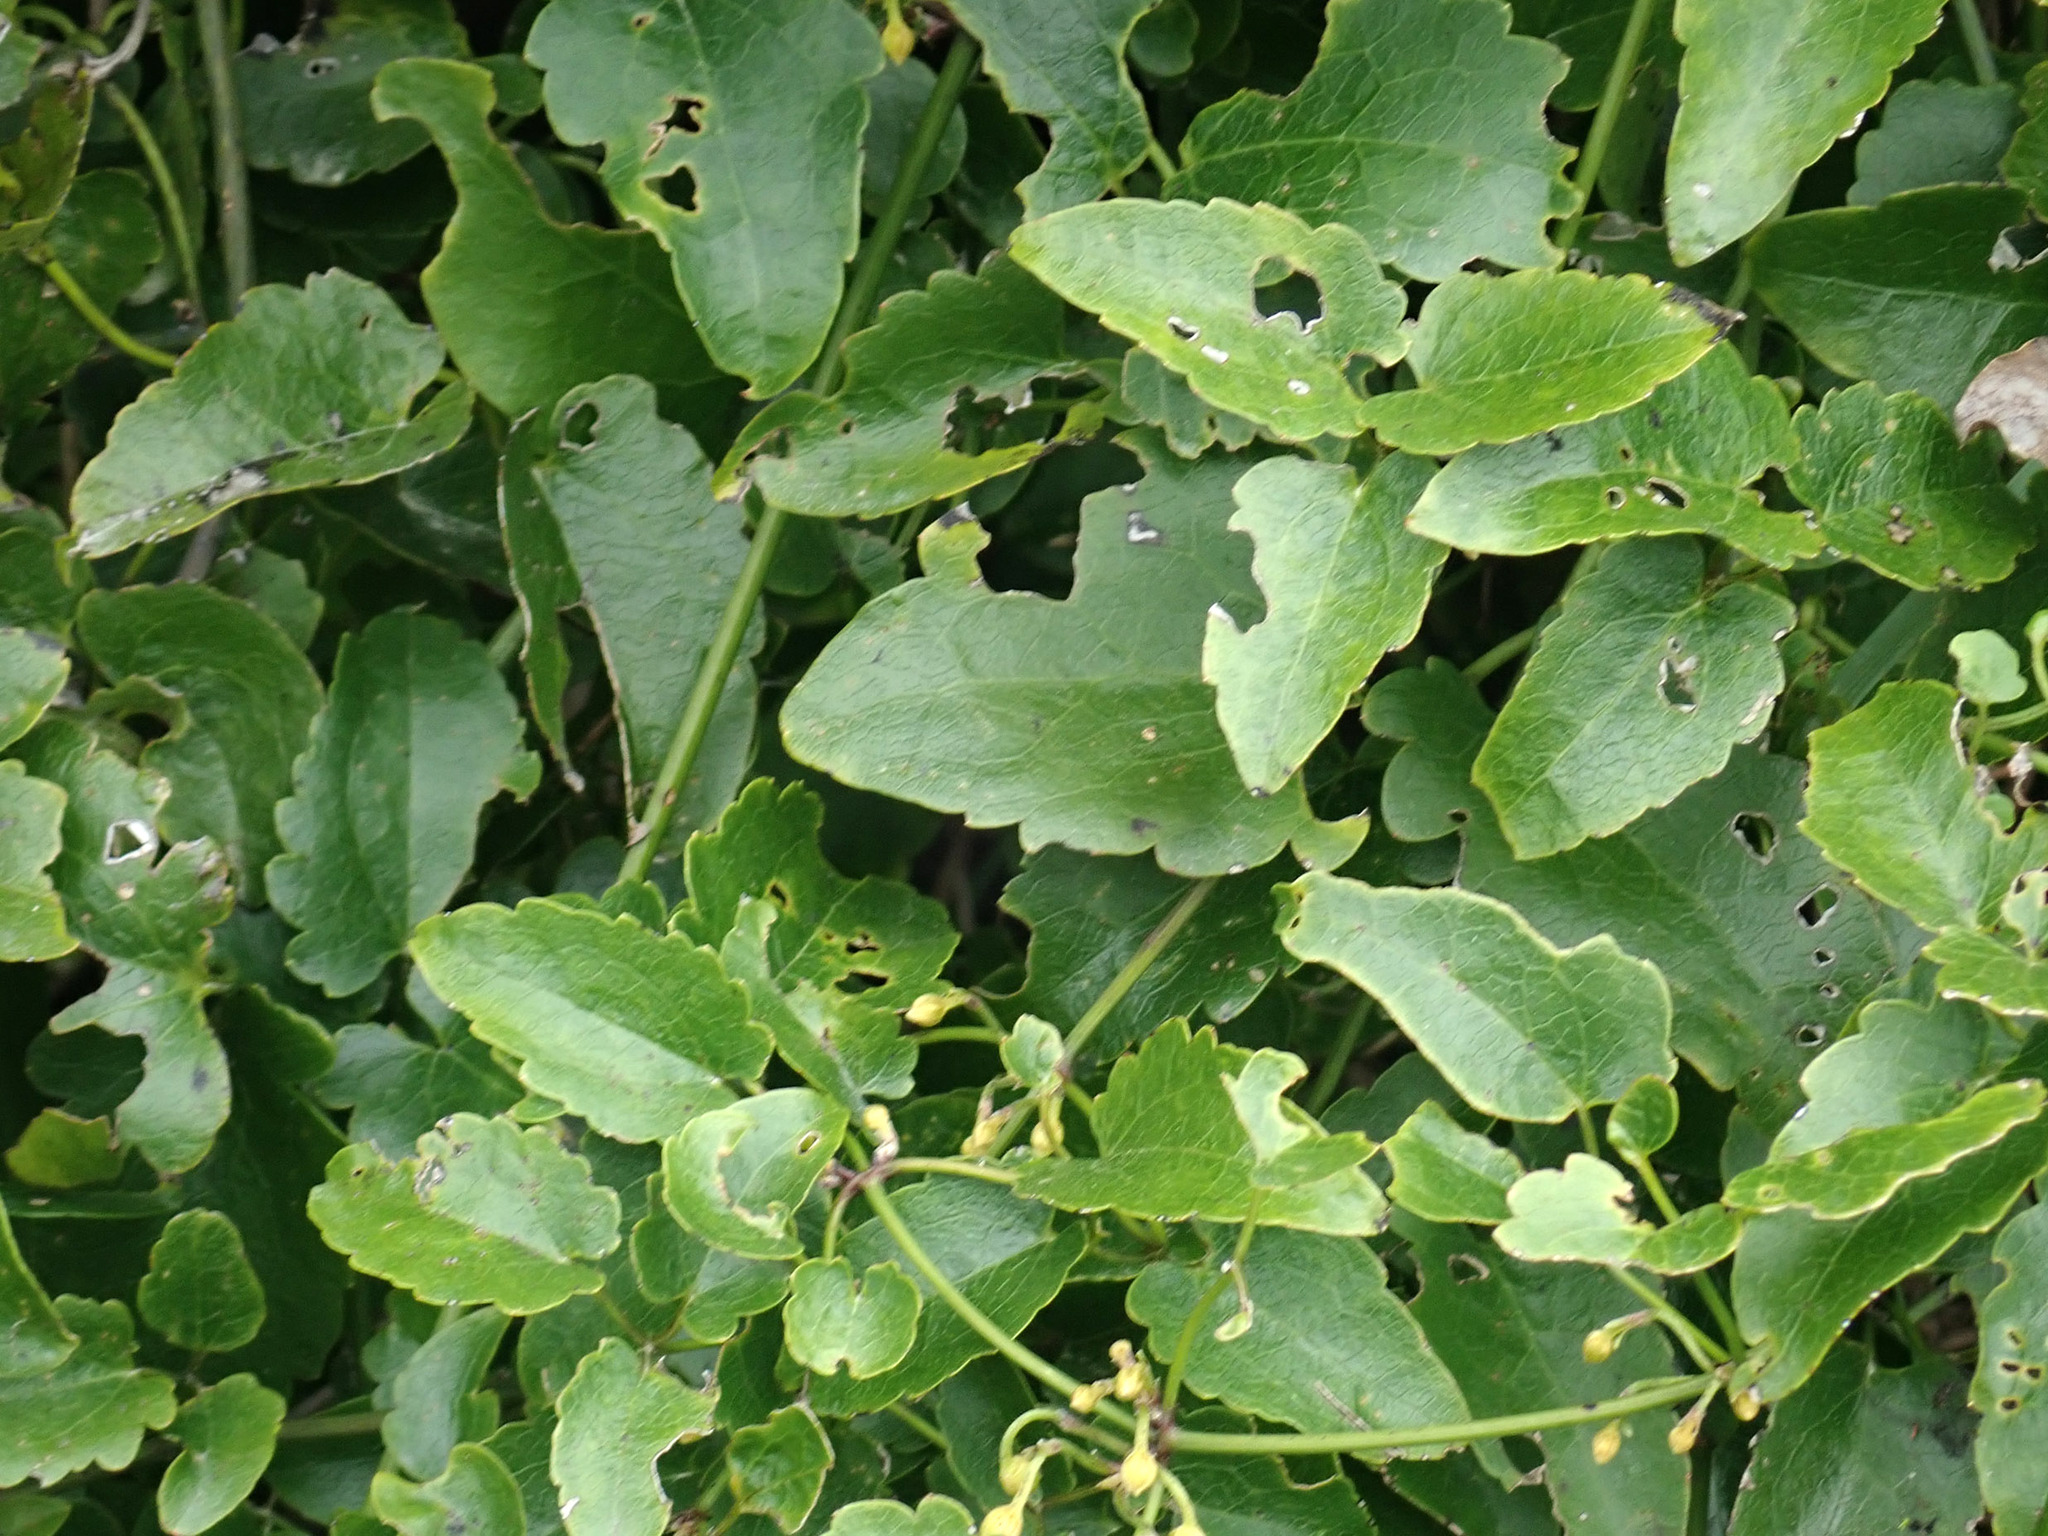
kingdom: Plantae
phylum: Tracheophyta
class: Magnoliopsida
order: Ranunculales
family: Ranunculaceae
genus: Clematis
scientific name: Clematis forsteri
